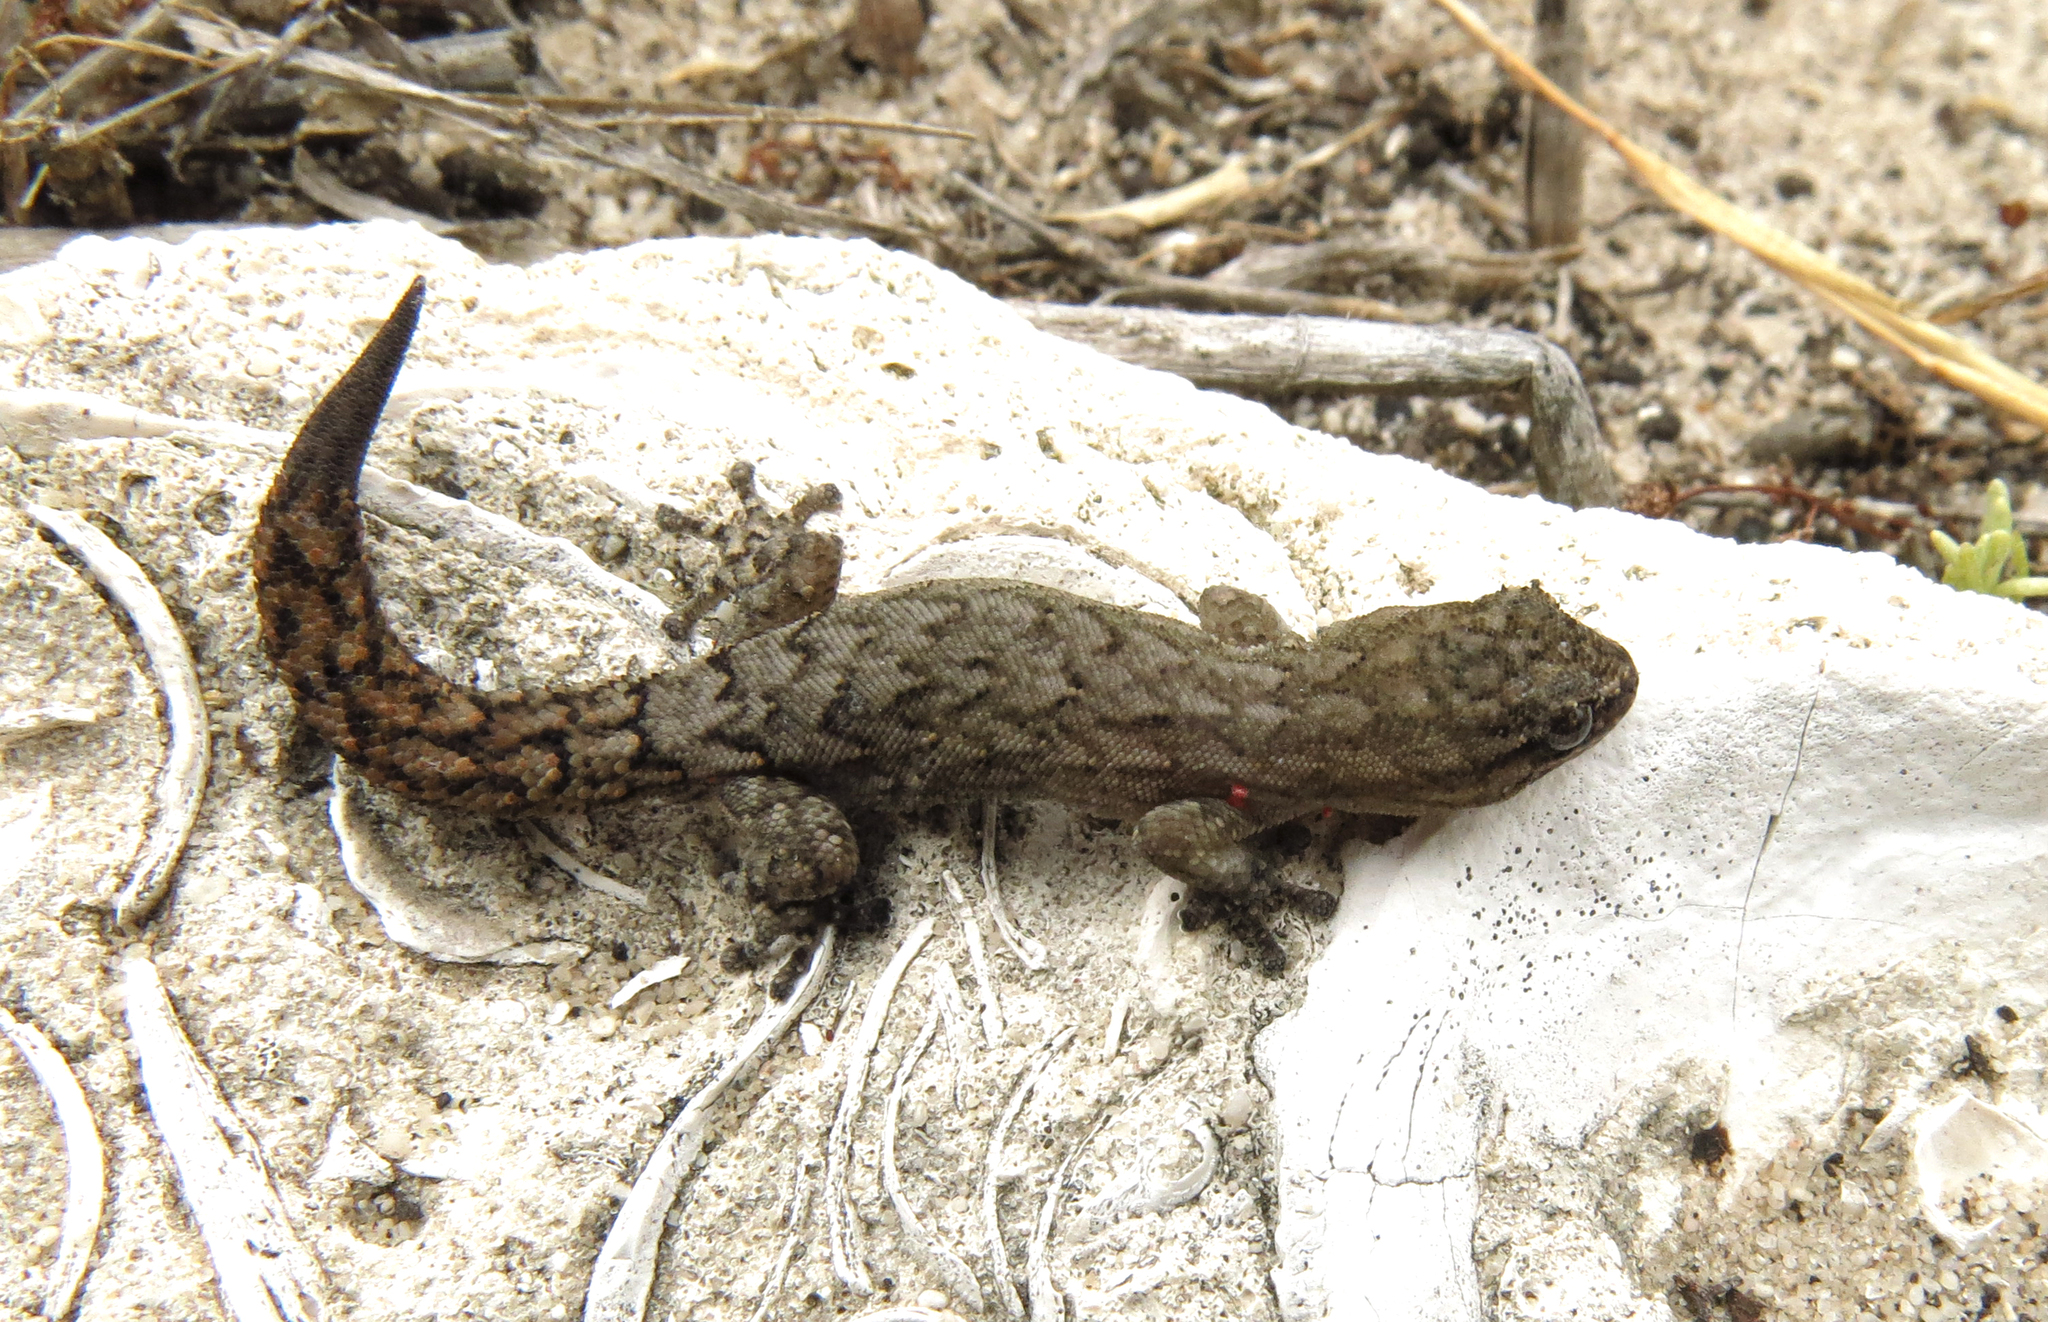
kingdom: Animalia
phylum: Chordata
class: Squamata
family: Gekkonidae
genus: Goggia
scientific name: Goggia incognita
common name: Cryptic pygmy gecko
